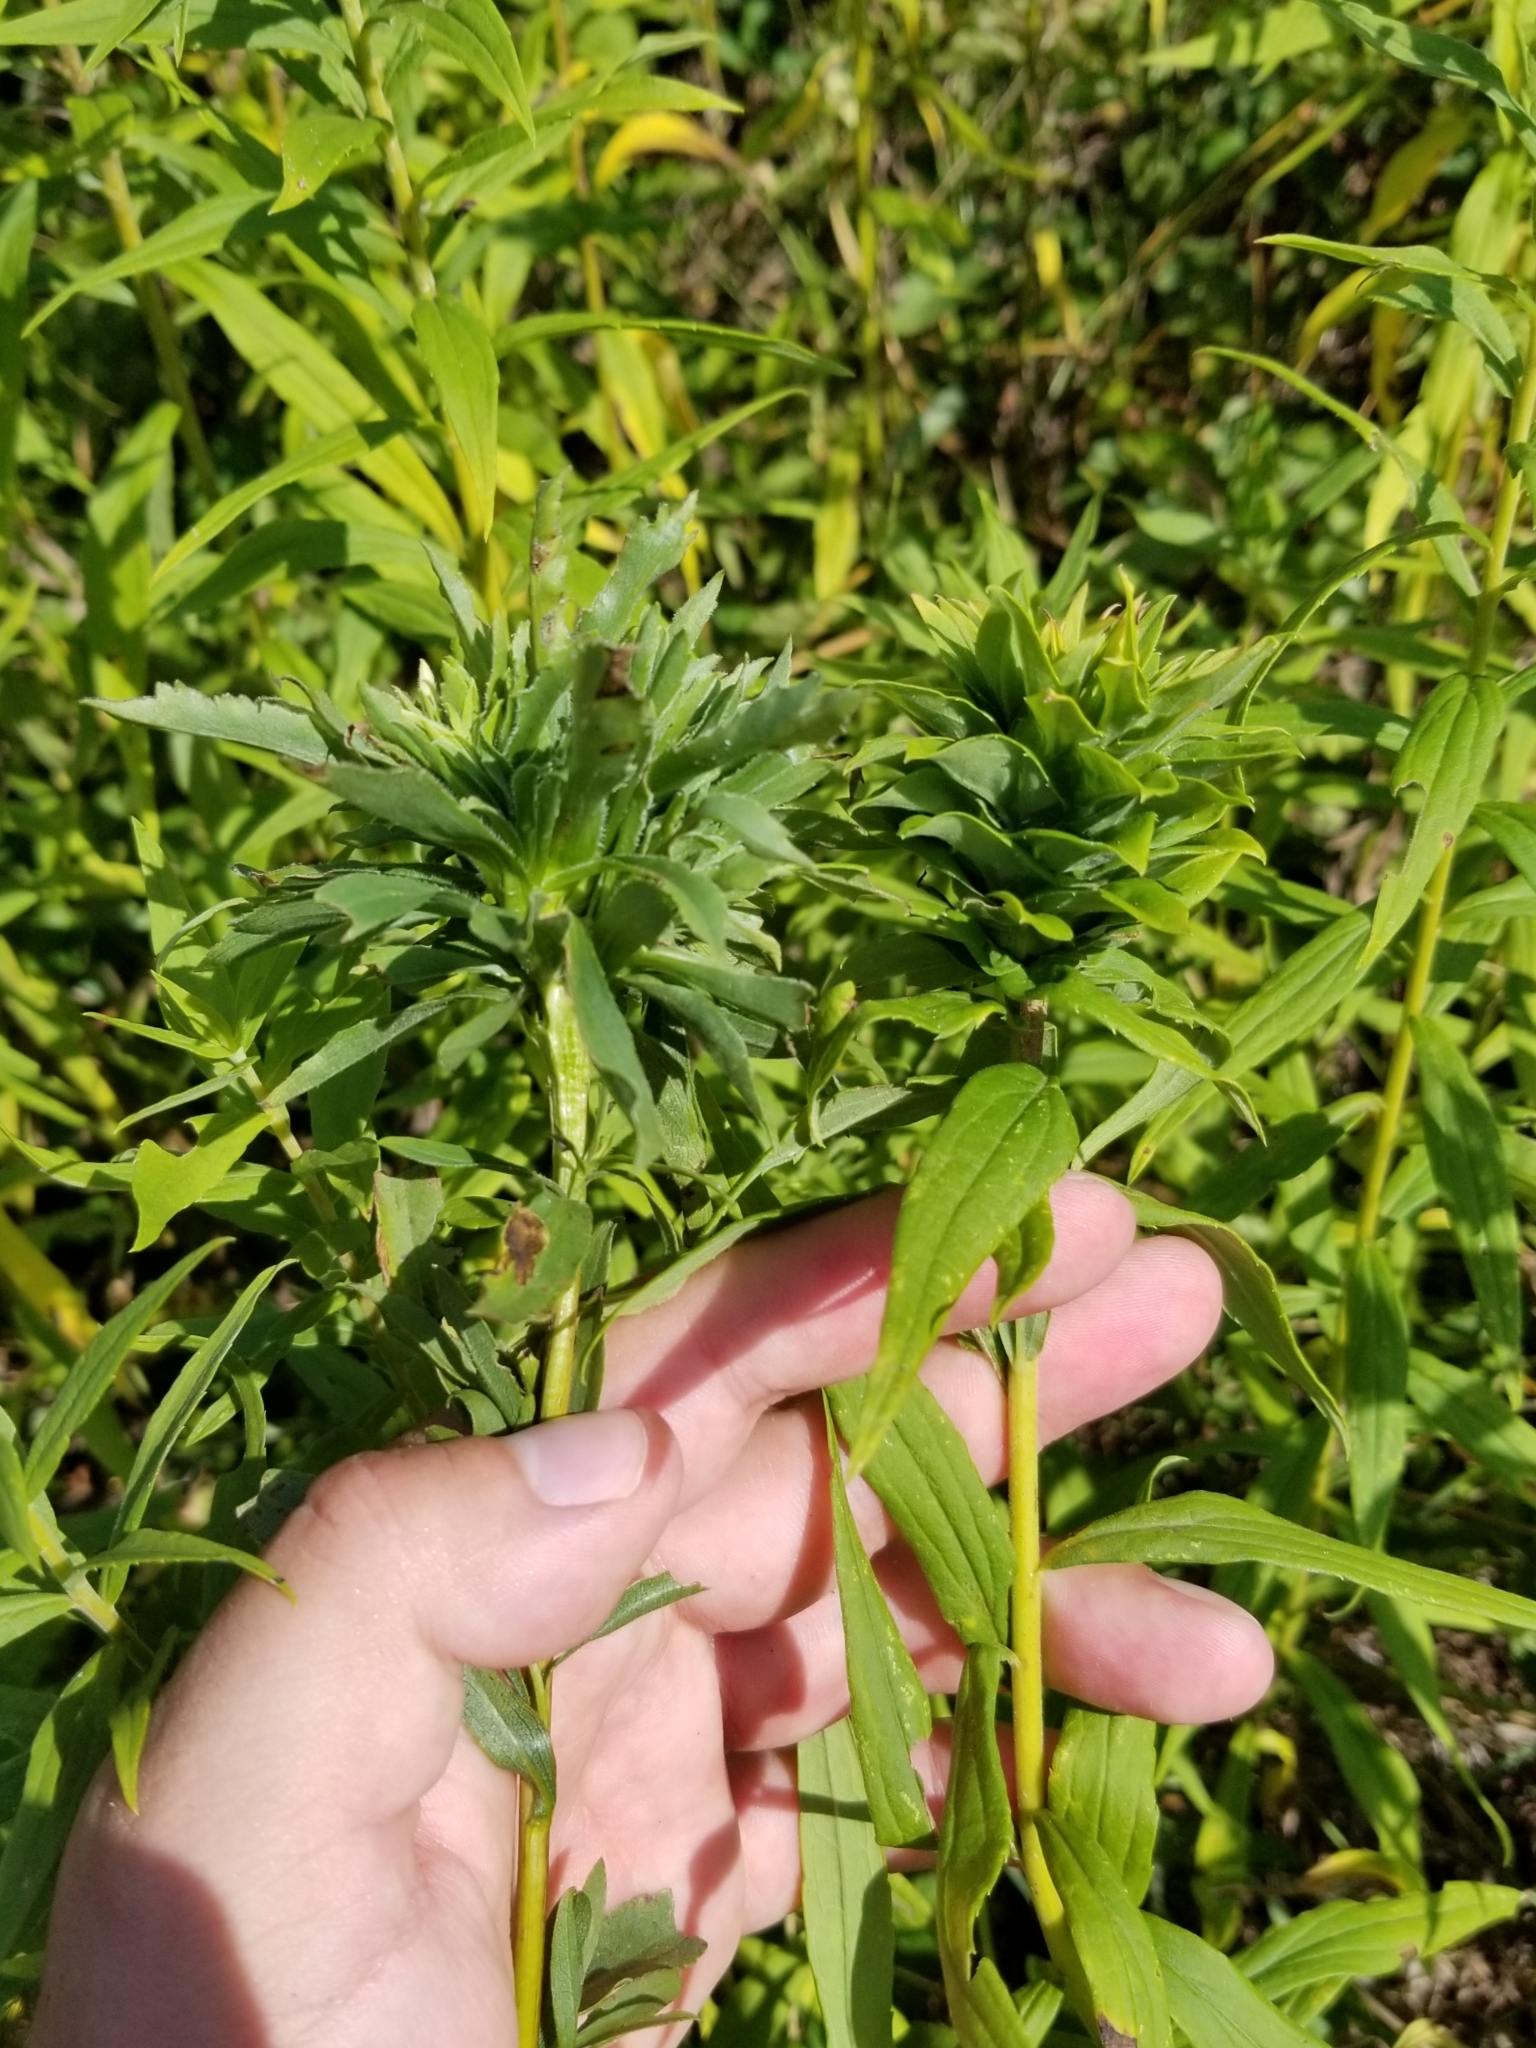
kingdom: Animalia
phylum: Arthropoda
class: Insecta
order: Diptera
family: Cecidomyiidae
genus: Rhopalomyia
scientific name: Rhopalomyia solidaginis
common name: Goldenrod bunch gall midge
